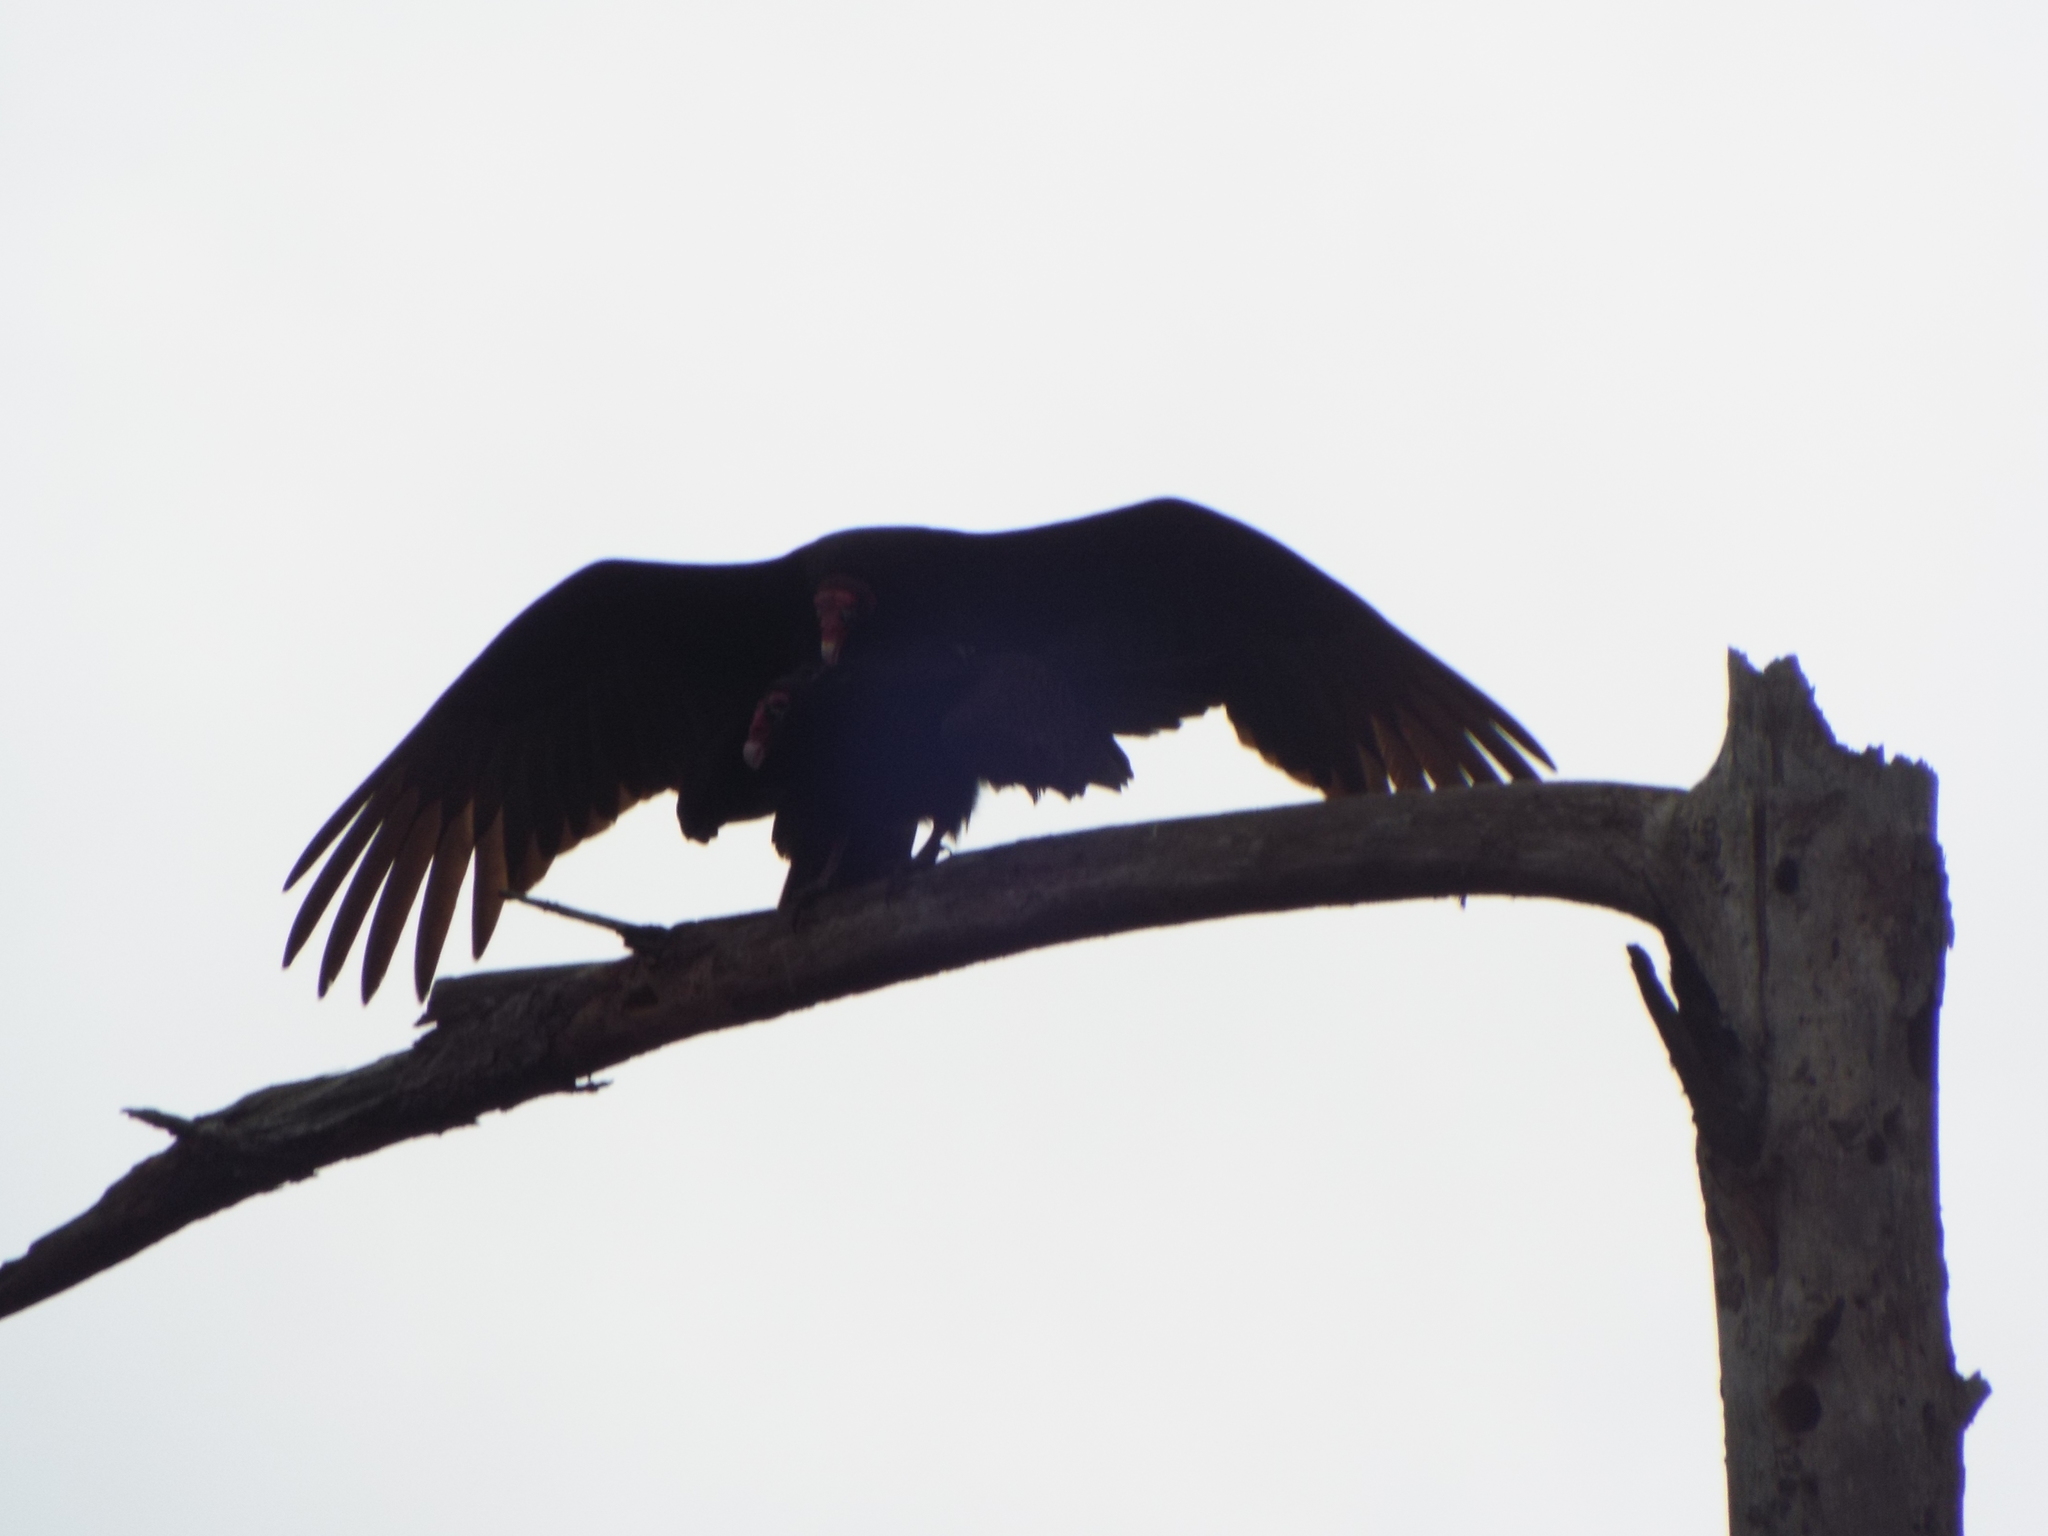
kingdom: Animalia
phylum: Chordata
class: Aves
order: Accipitriformes
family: Cathartidae
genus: Cathartes
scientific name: Cathartes aura
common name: Turkey vulture
